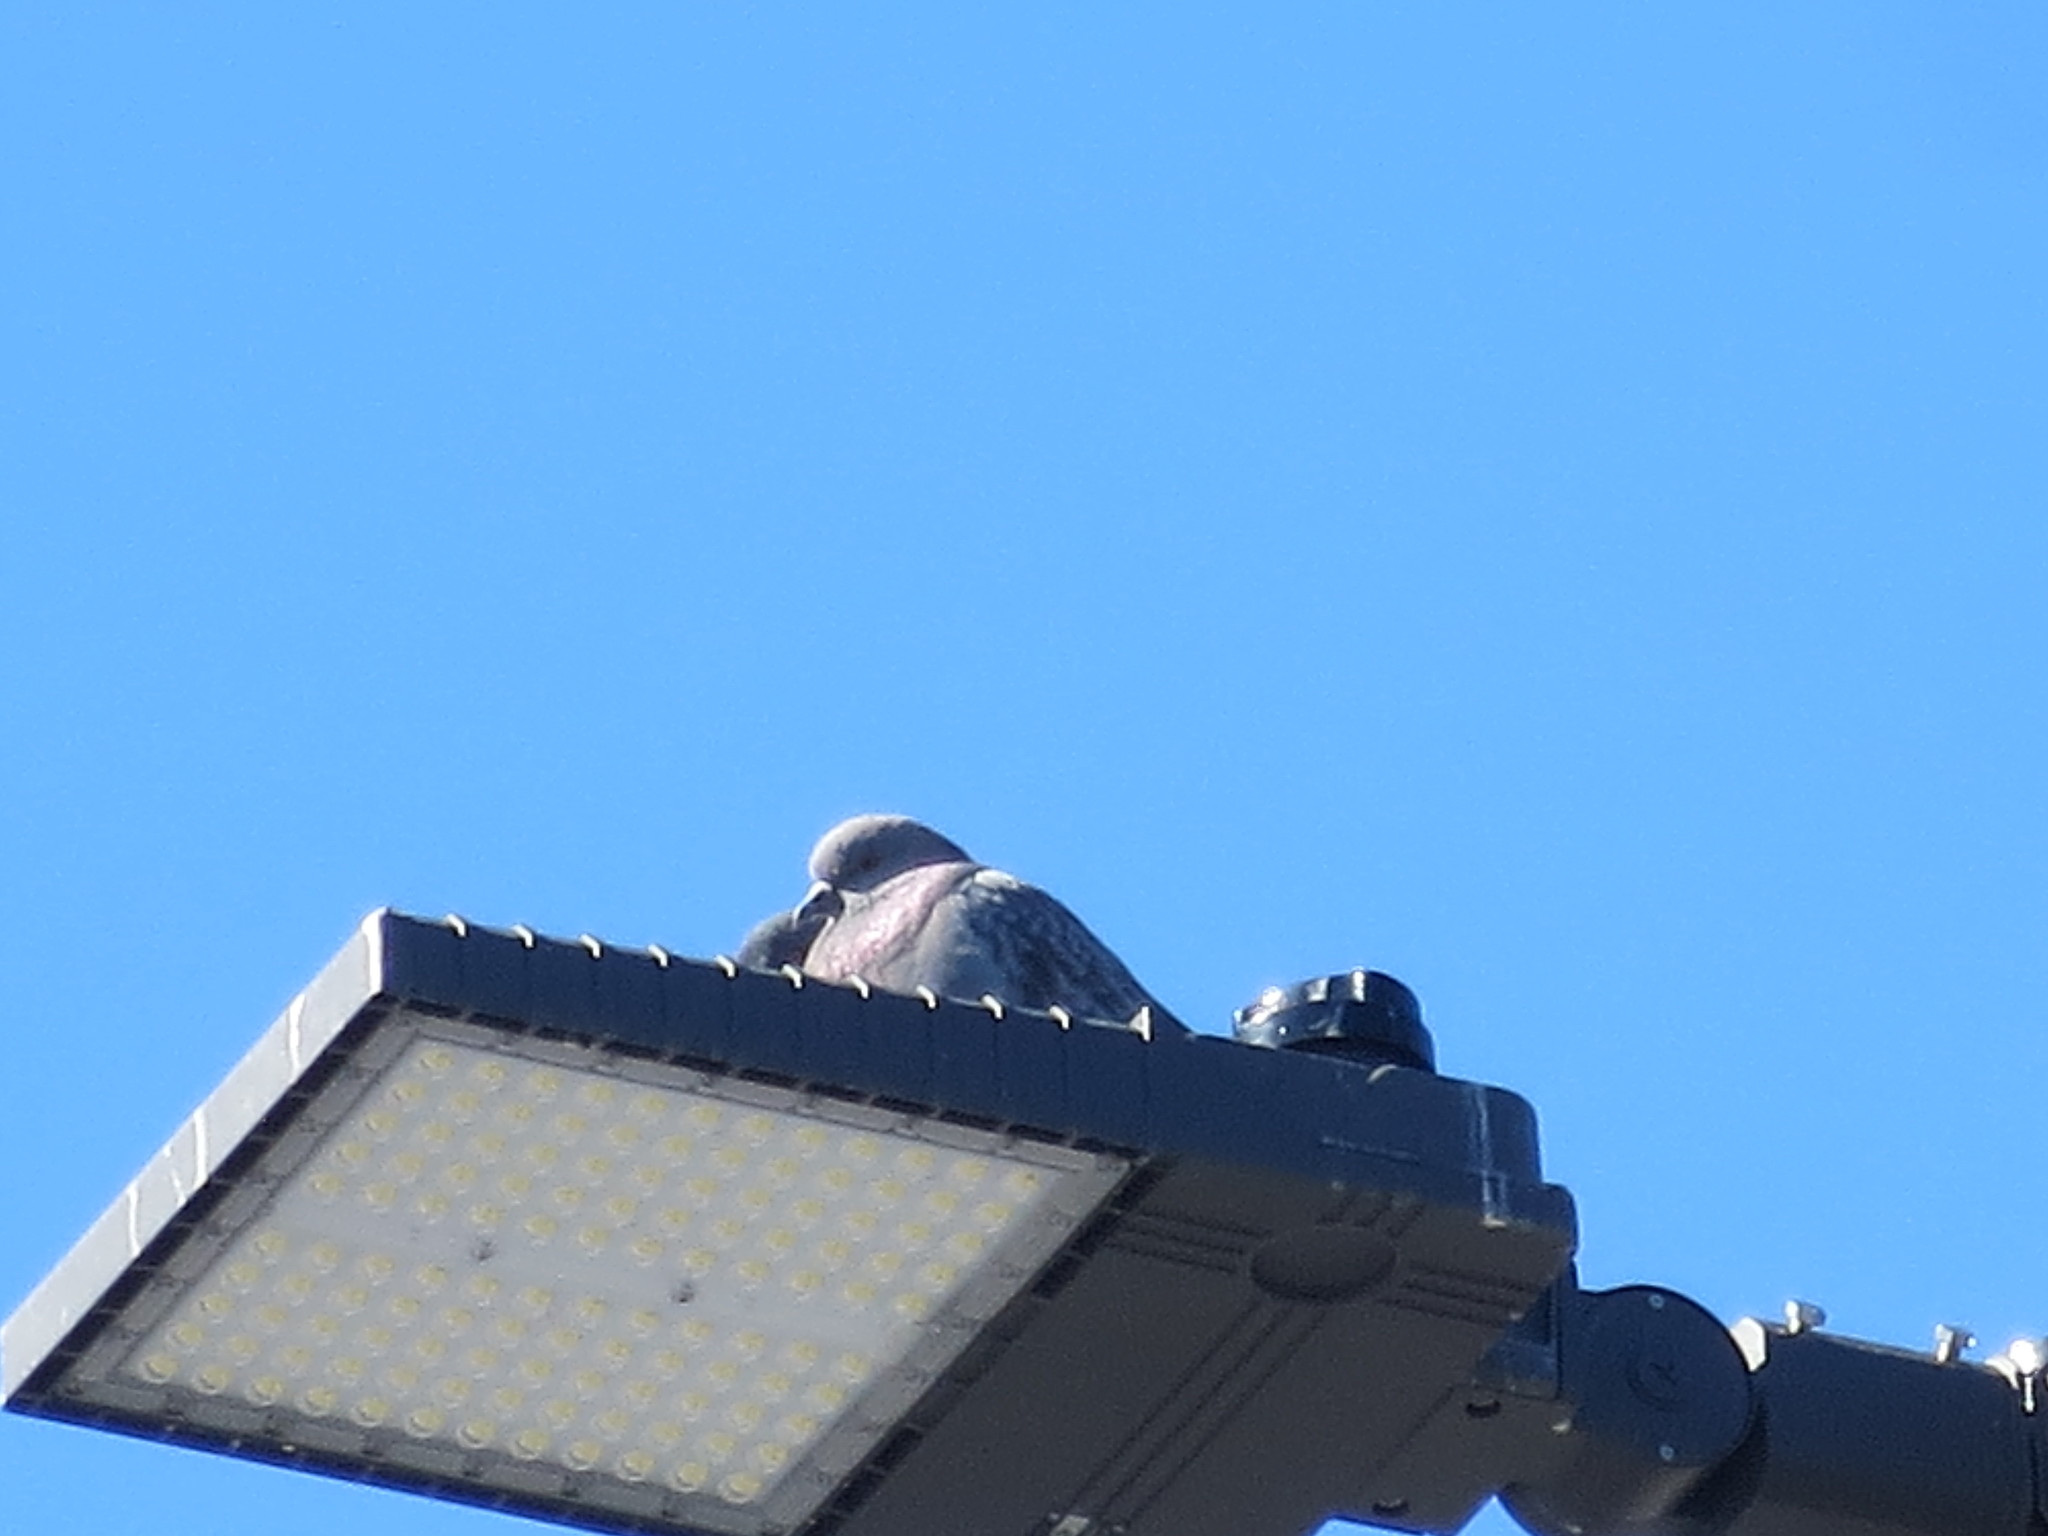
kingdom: Animalia
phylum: Chordata
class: Aves
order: Columbiformes
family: Columbidae
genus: Columba
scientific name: Columba livia
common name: Rock pigeon
